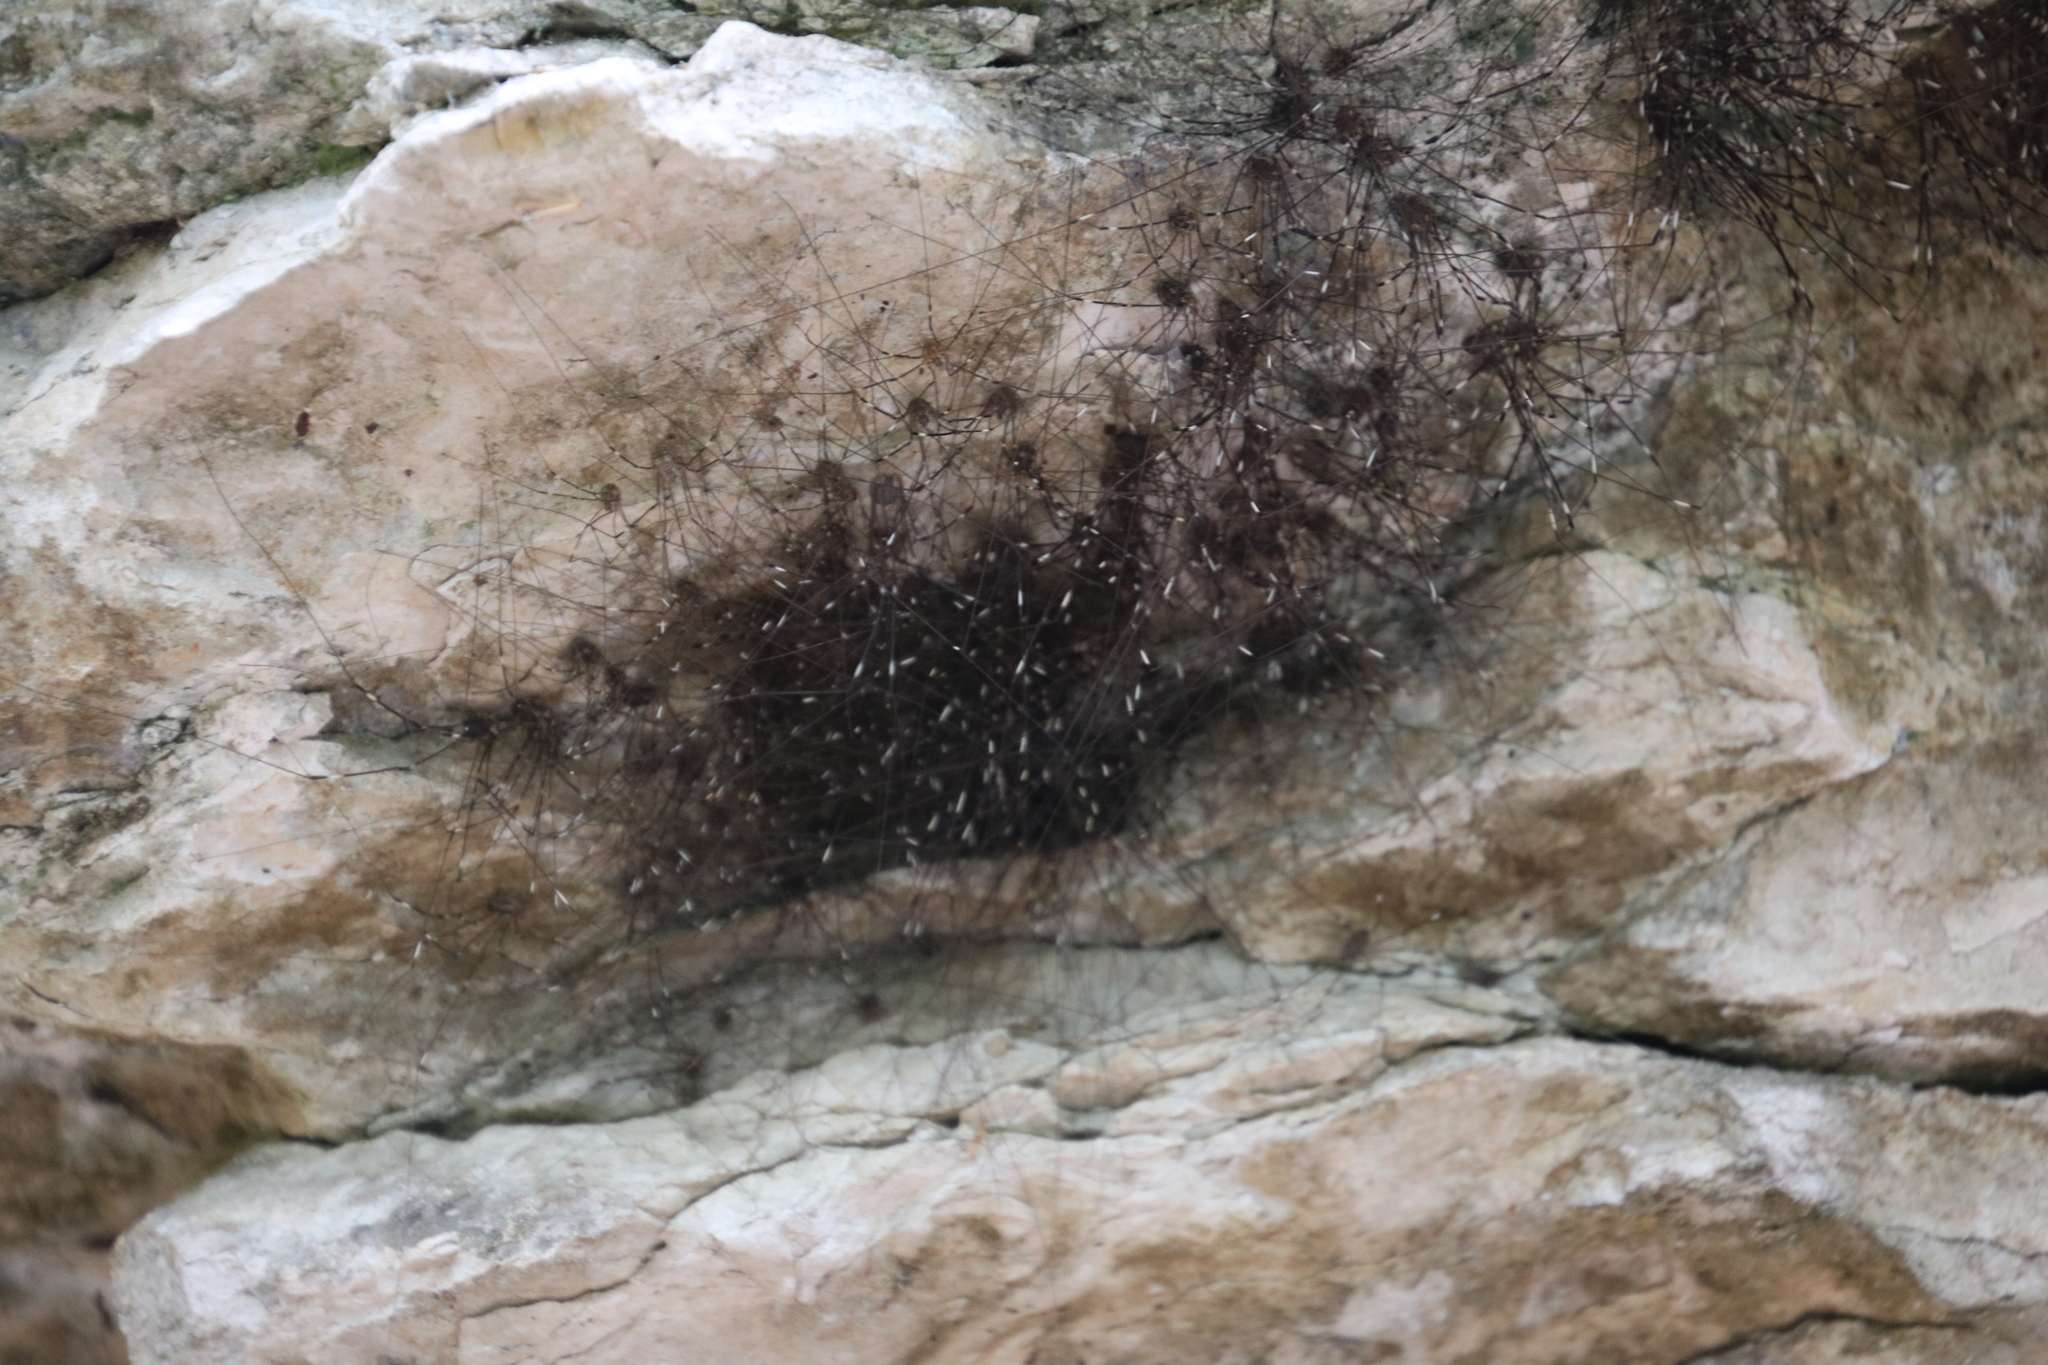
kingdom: Animalia
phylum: Arthropoda
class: Arachnida
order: Opiliones
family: Sclerosomatidae
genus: Leiobunum
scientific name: Leiobunum townsendi
